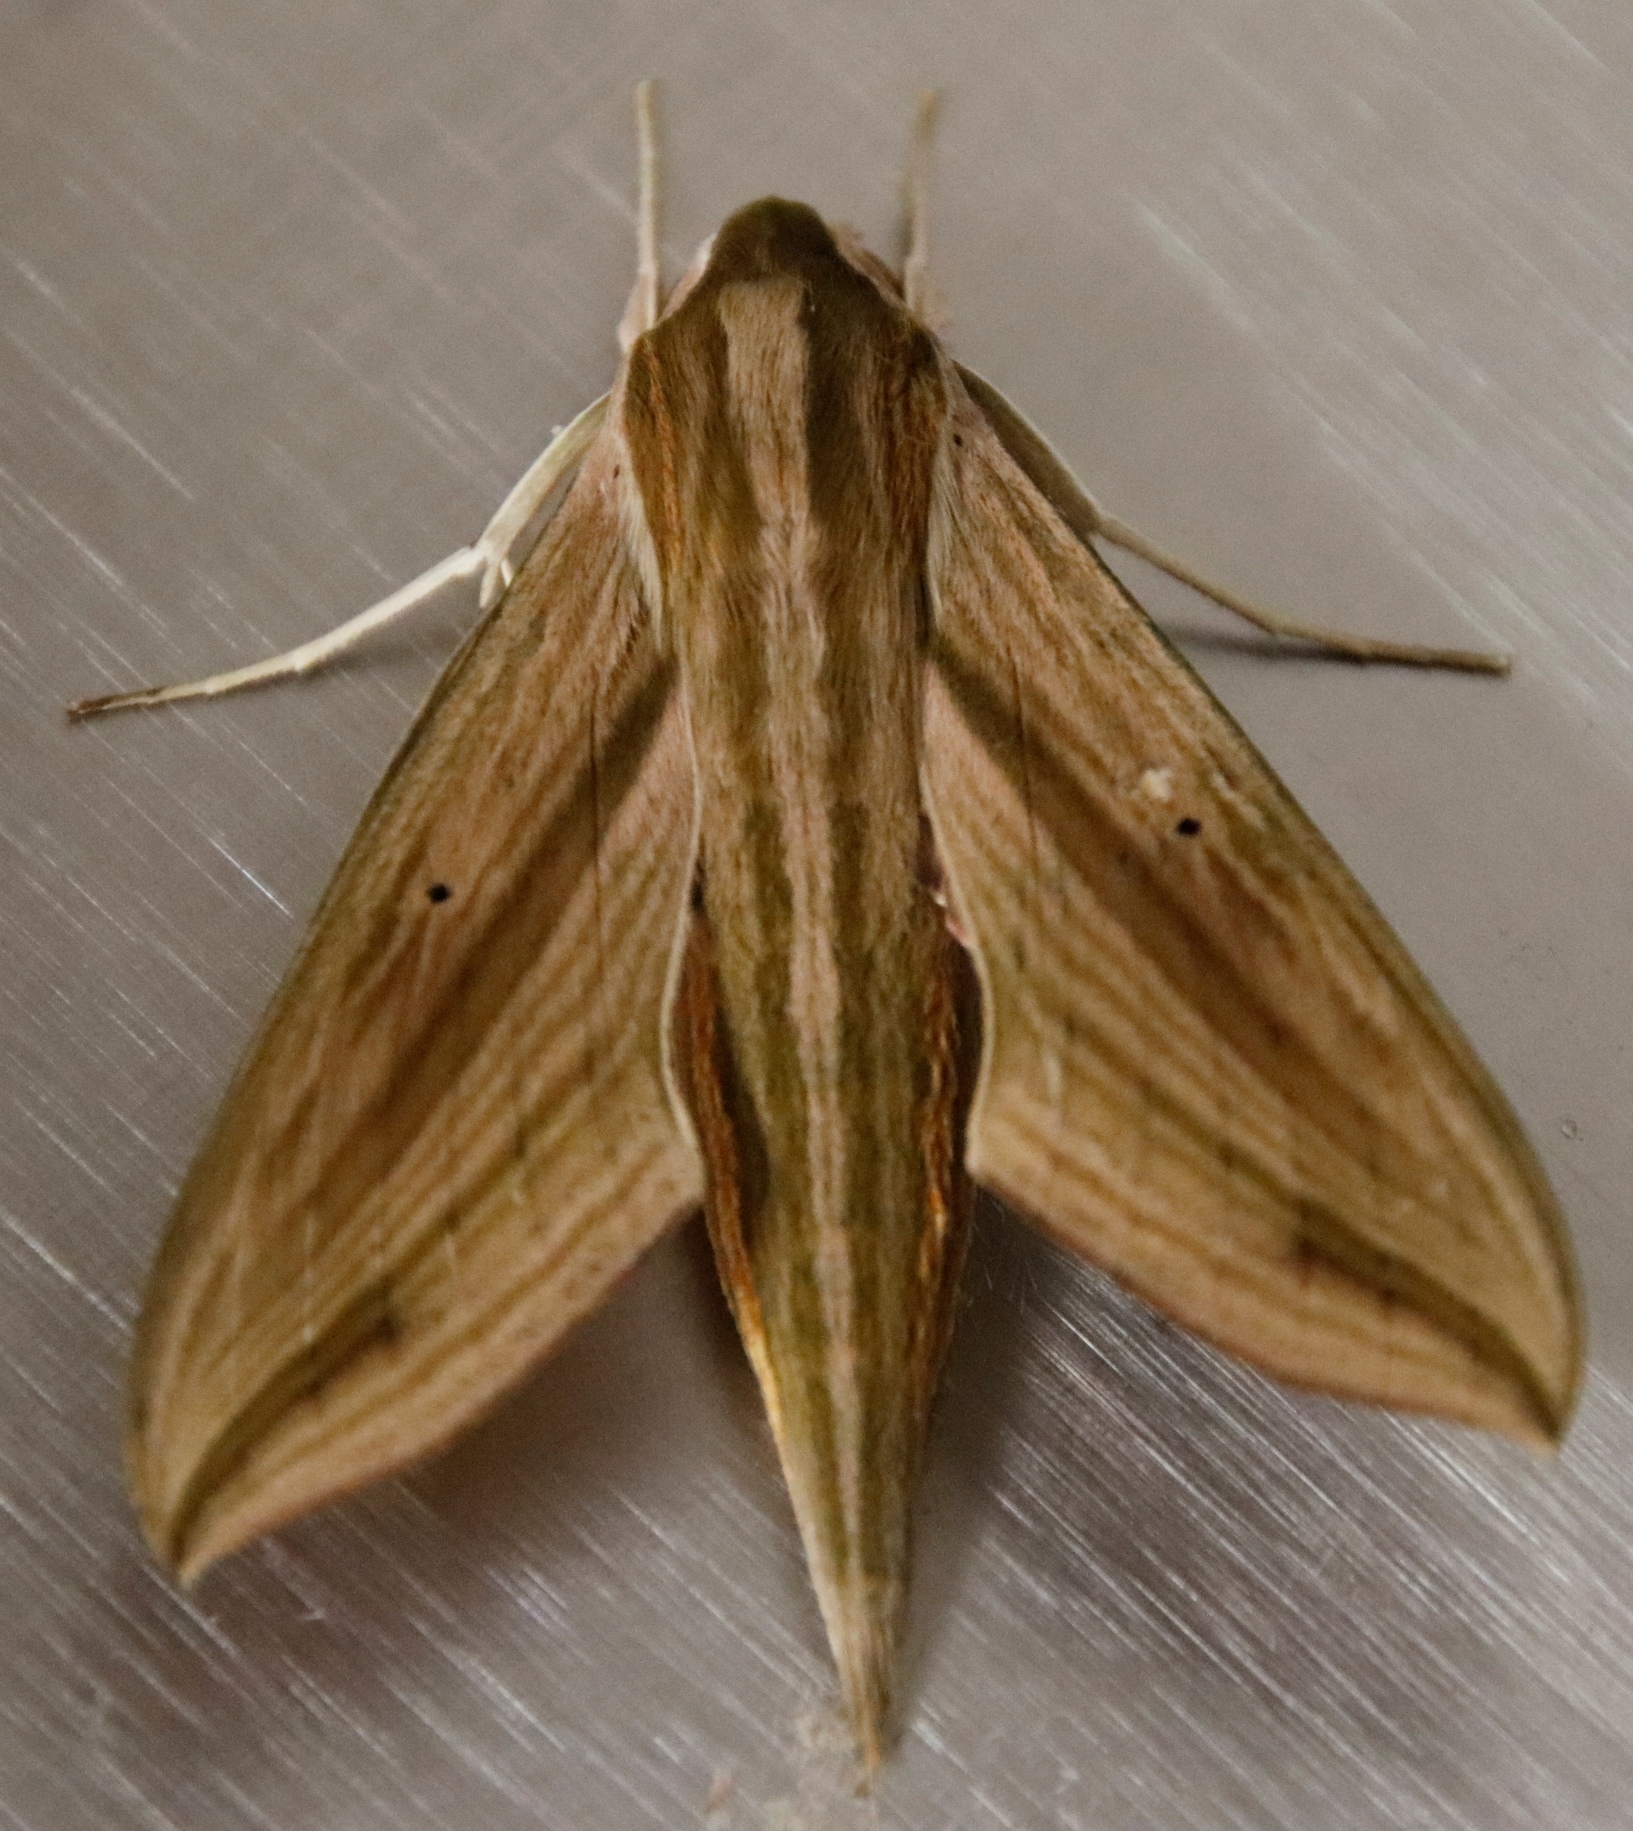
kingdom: Animalia
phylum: Arthropoda
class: Insecta
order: Lepidoptera
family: Sphingidae
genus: Hippotion
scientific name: Hippotion eson
